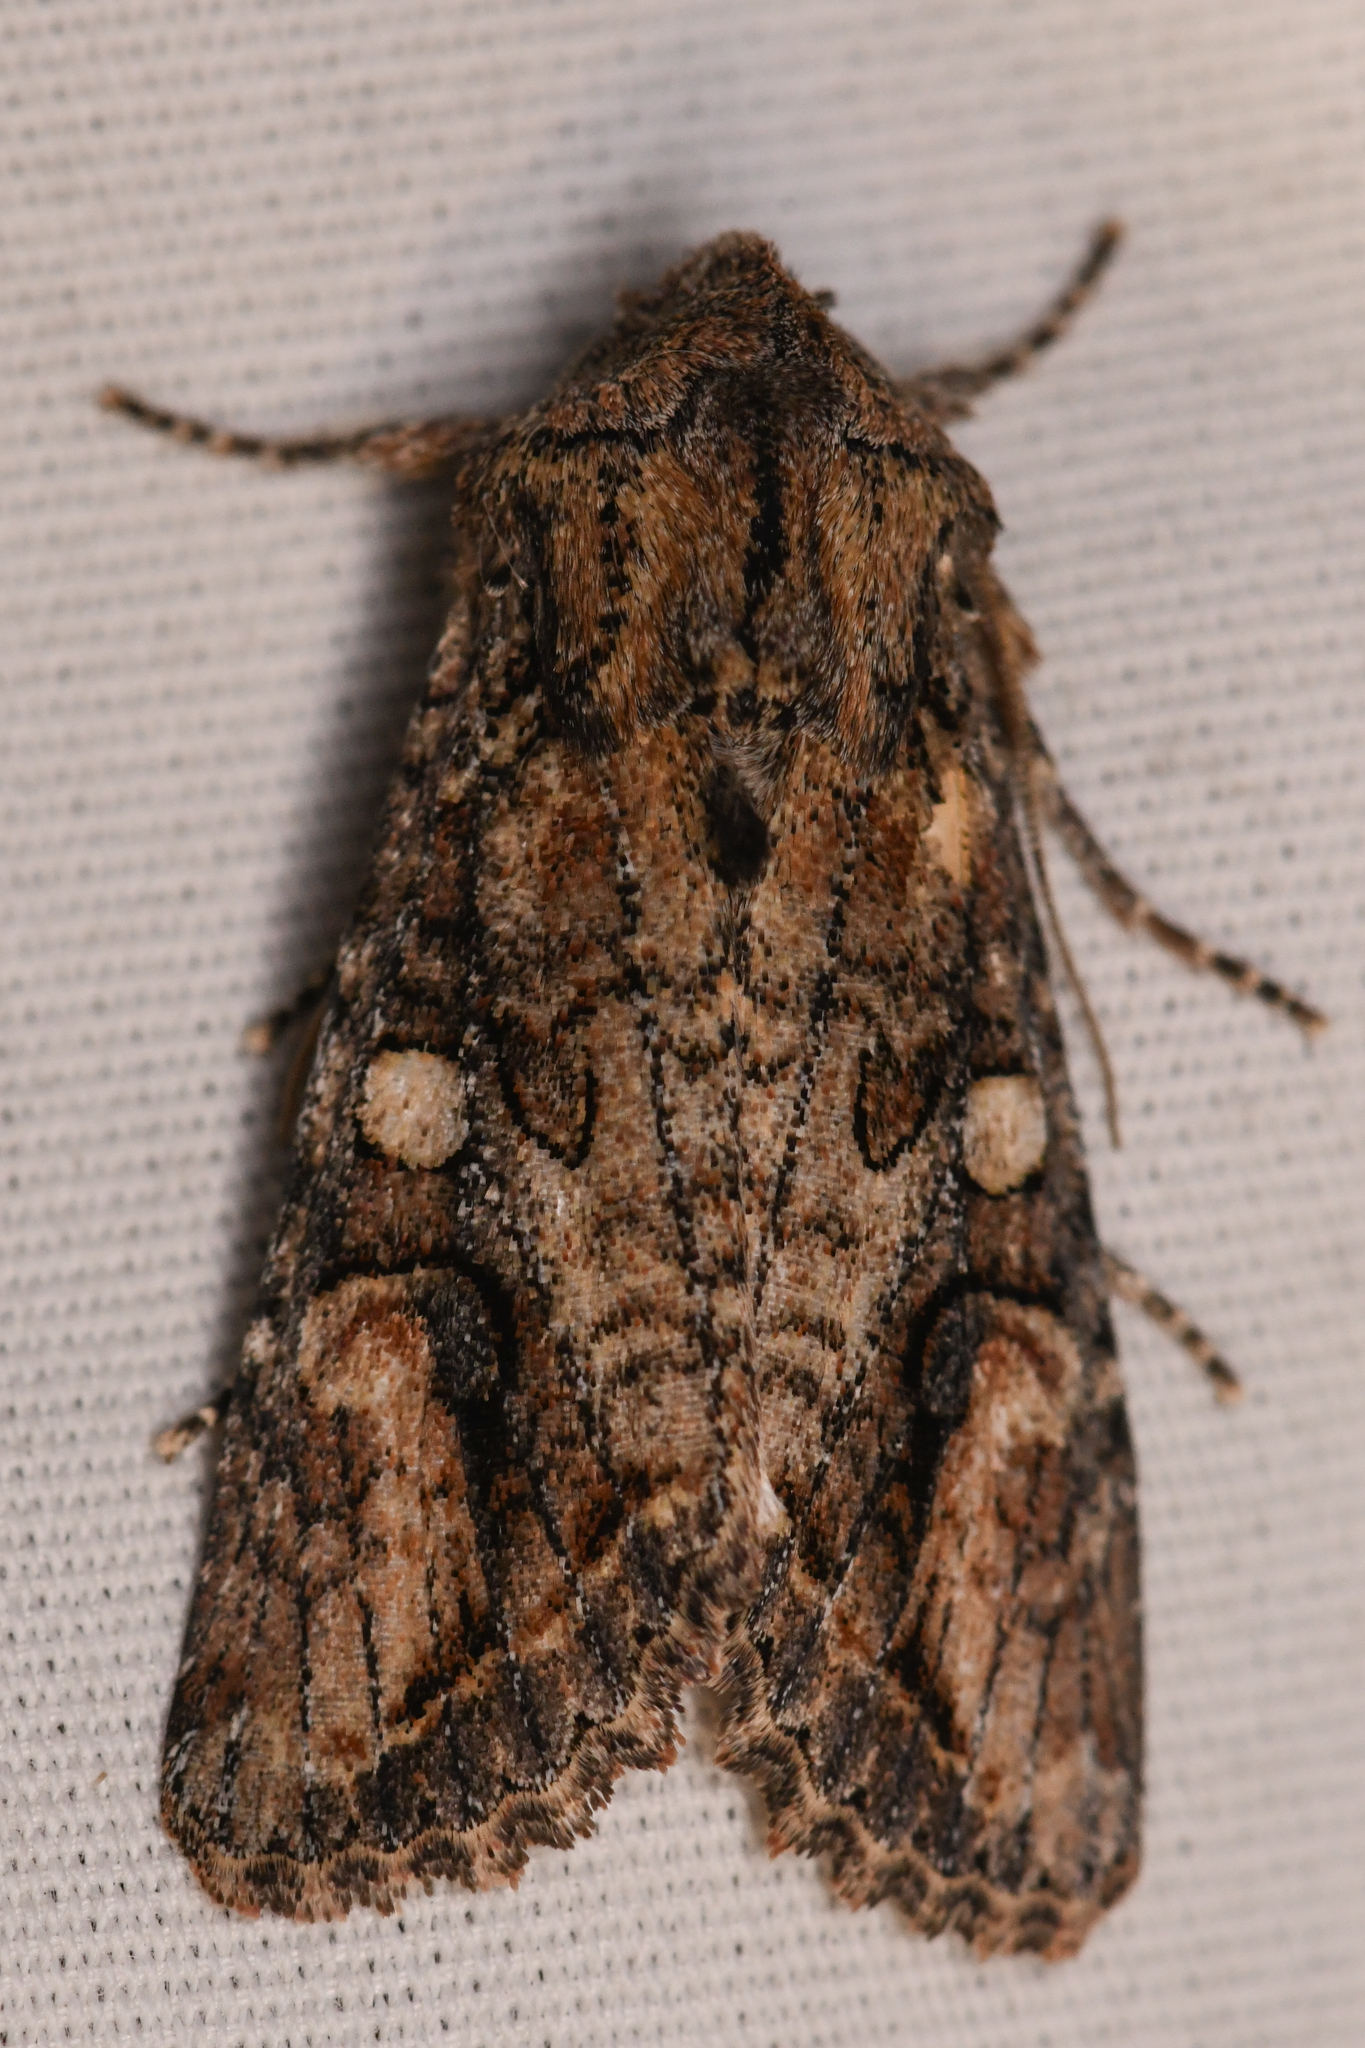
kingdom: Animalia
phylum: Arthropoda
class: Insecta
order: Lepidoptera
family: Noctuidae
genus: Egira
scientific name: Egira perlubens
